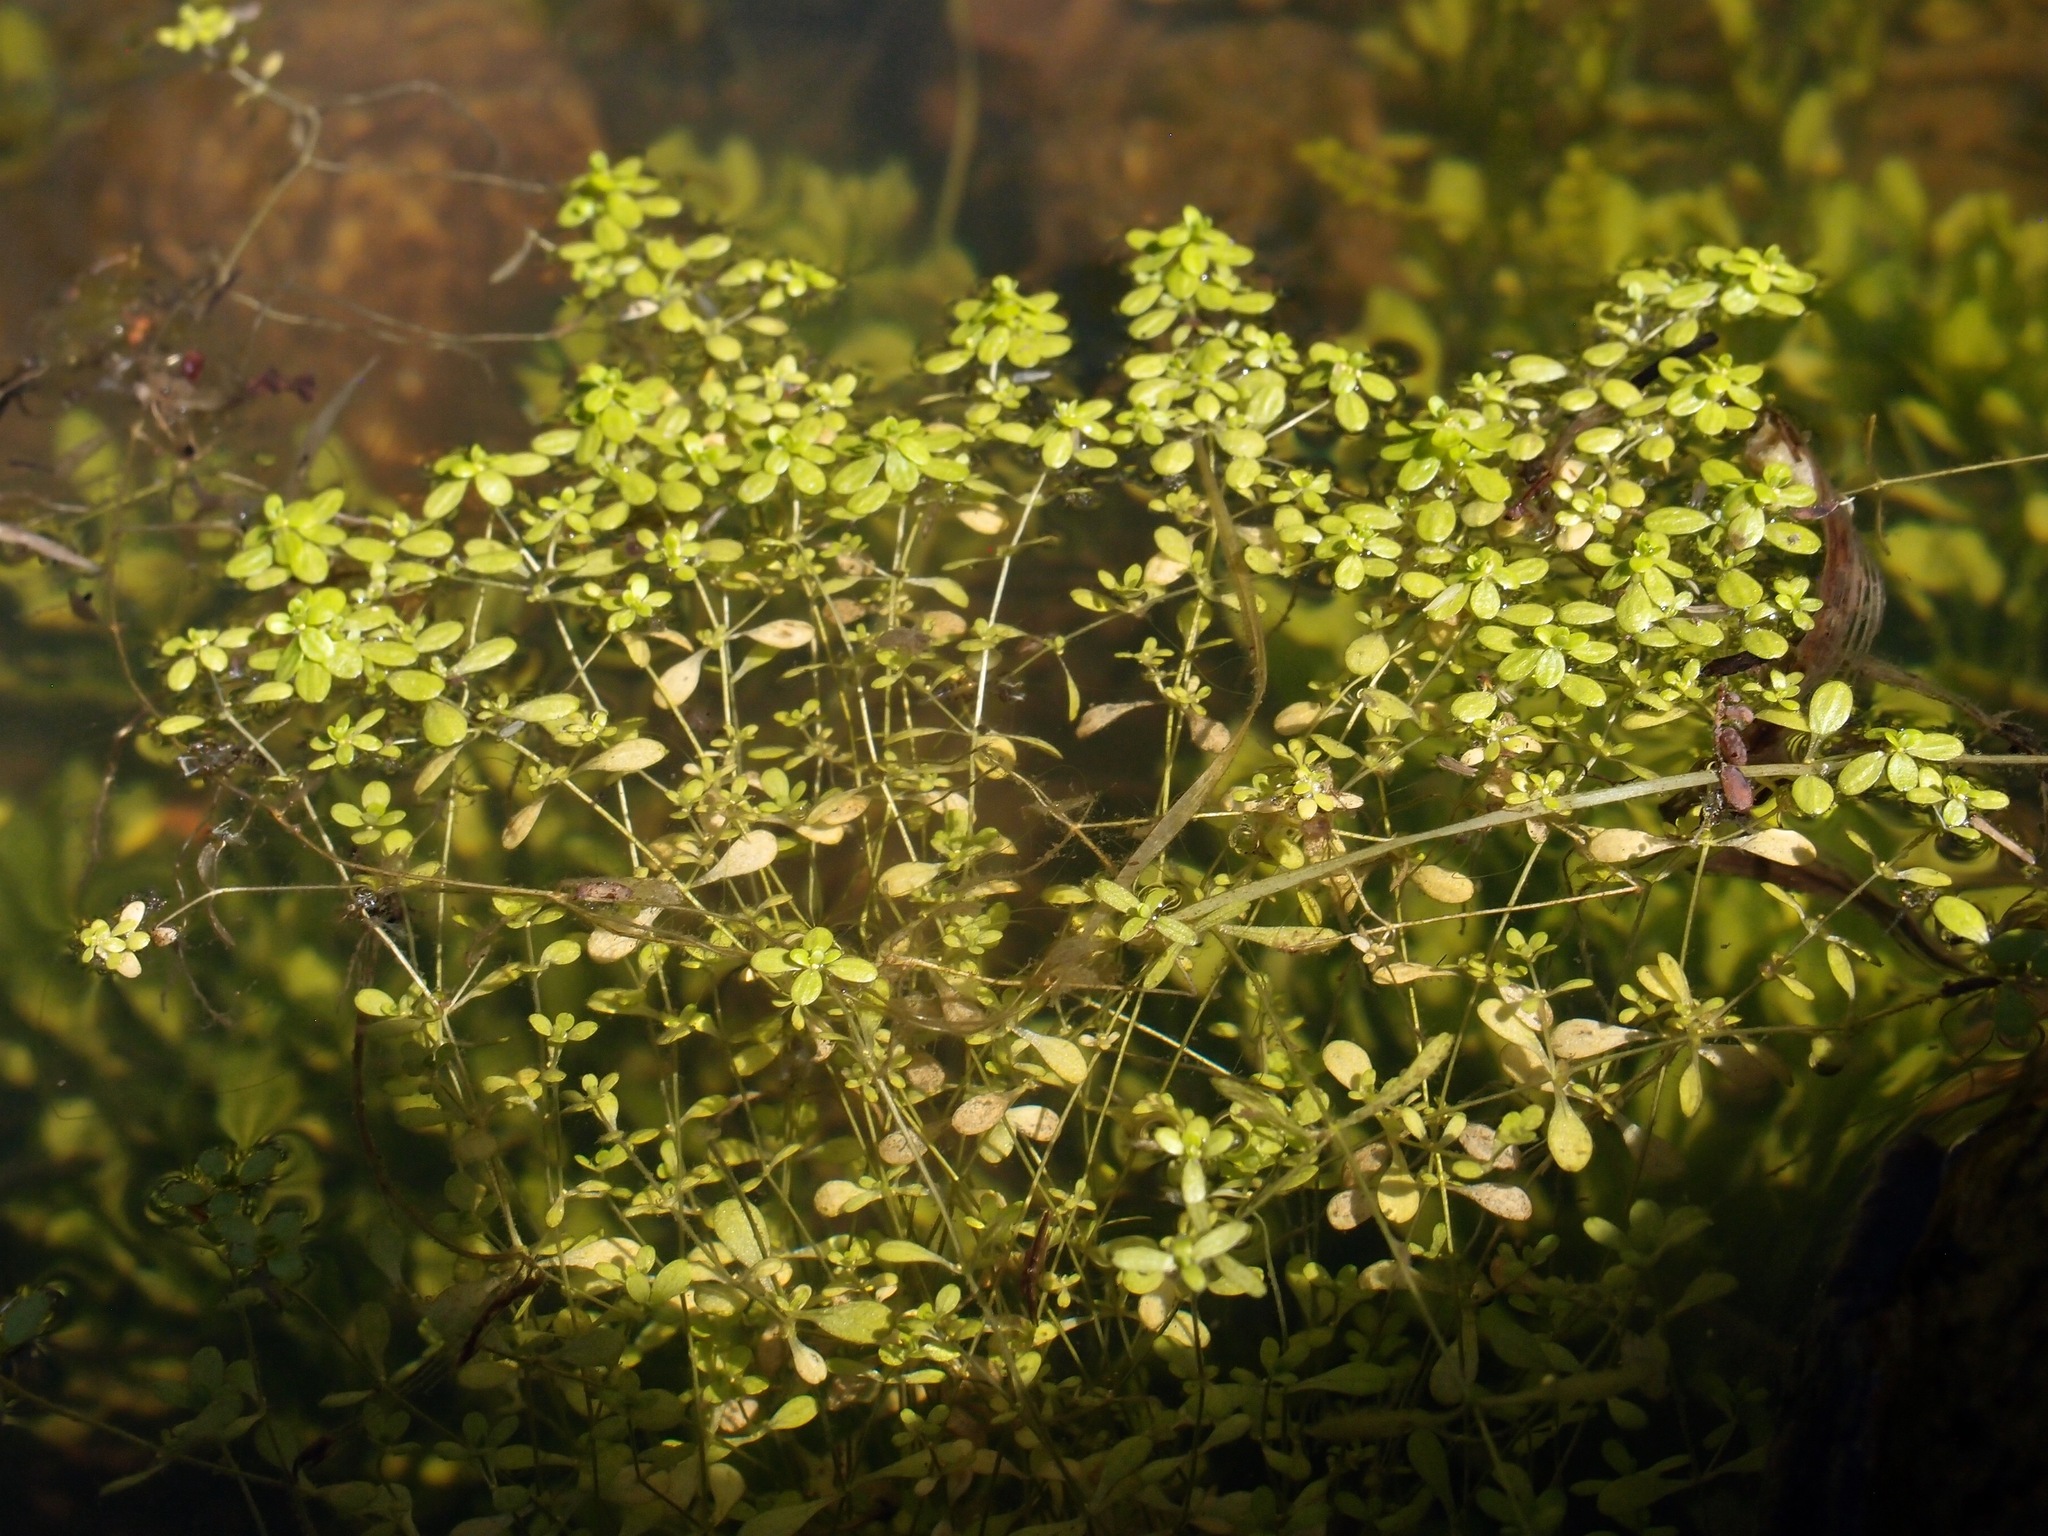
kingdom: Plantae
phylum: Tracheophyta
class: Magnoliopsida
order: Lamiales
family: Plantaginaceae
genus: Callitriche
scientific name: Callitriche terrestris
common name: Terrestrial water-starwort
